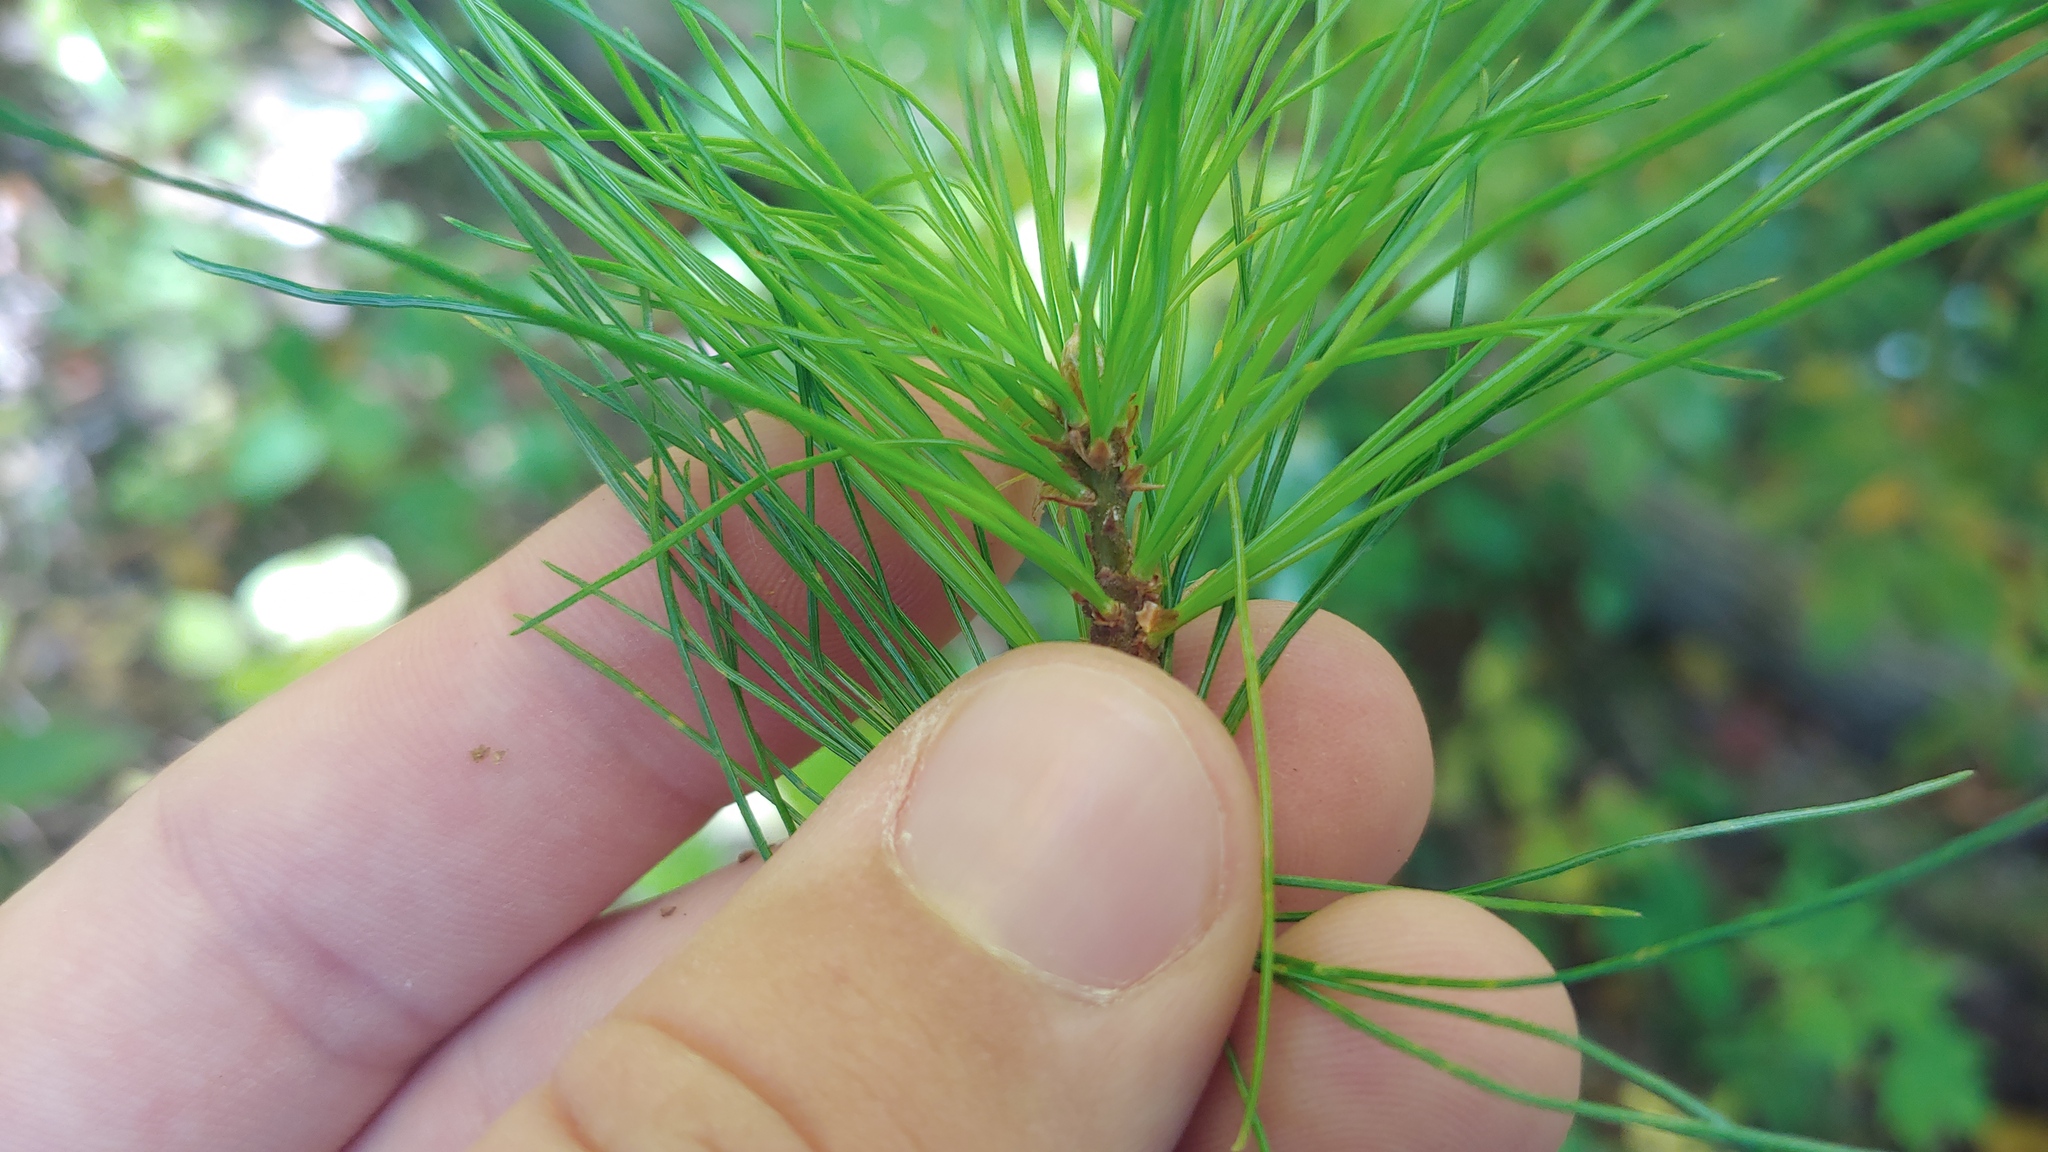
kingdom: Plantae
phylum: Tracheophyta
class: Pinopsida
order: Pinales
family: Pinaceae
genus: Pinus
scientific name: Pinus strobus
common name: Weymouth pine
